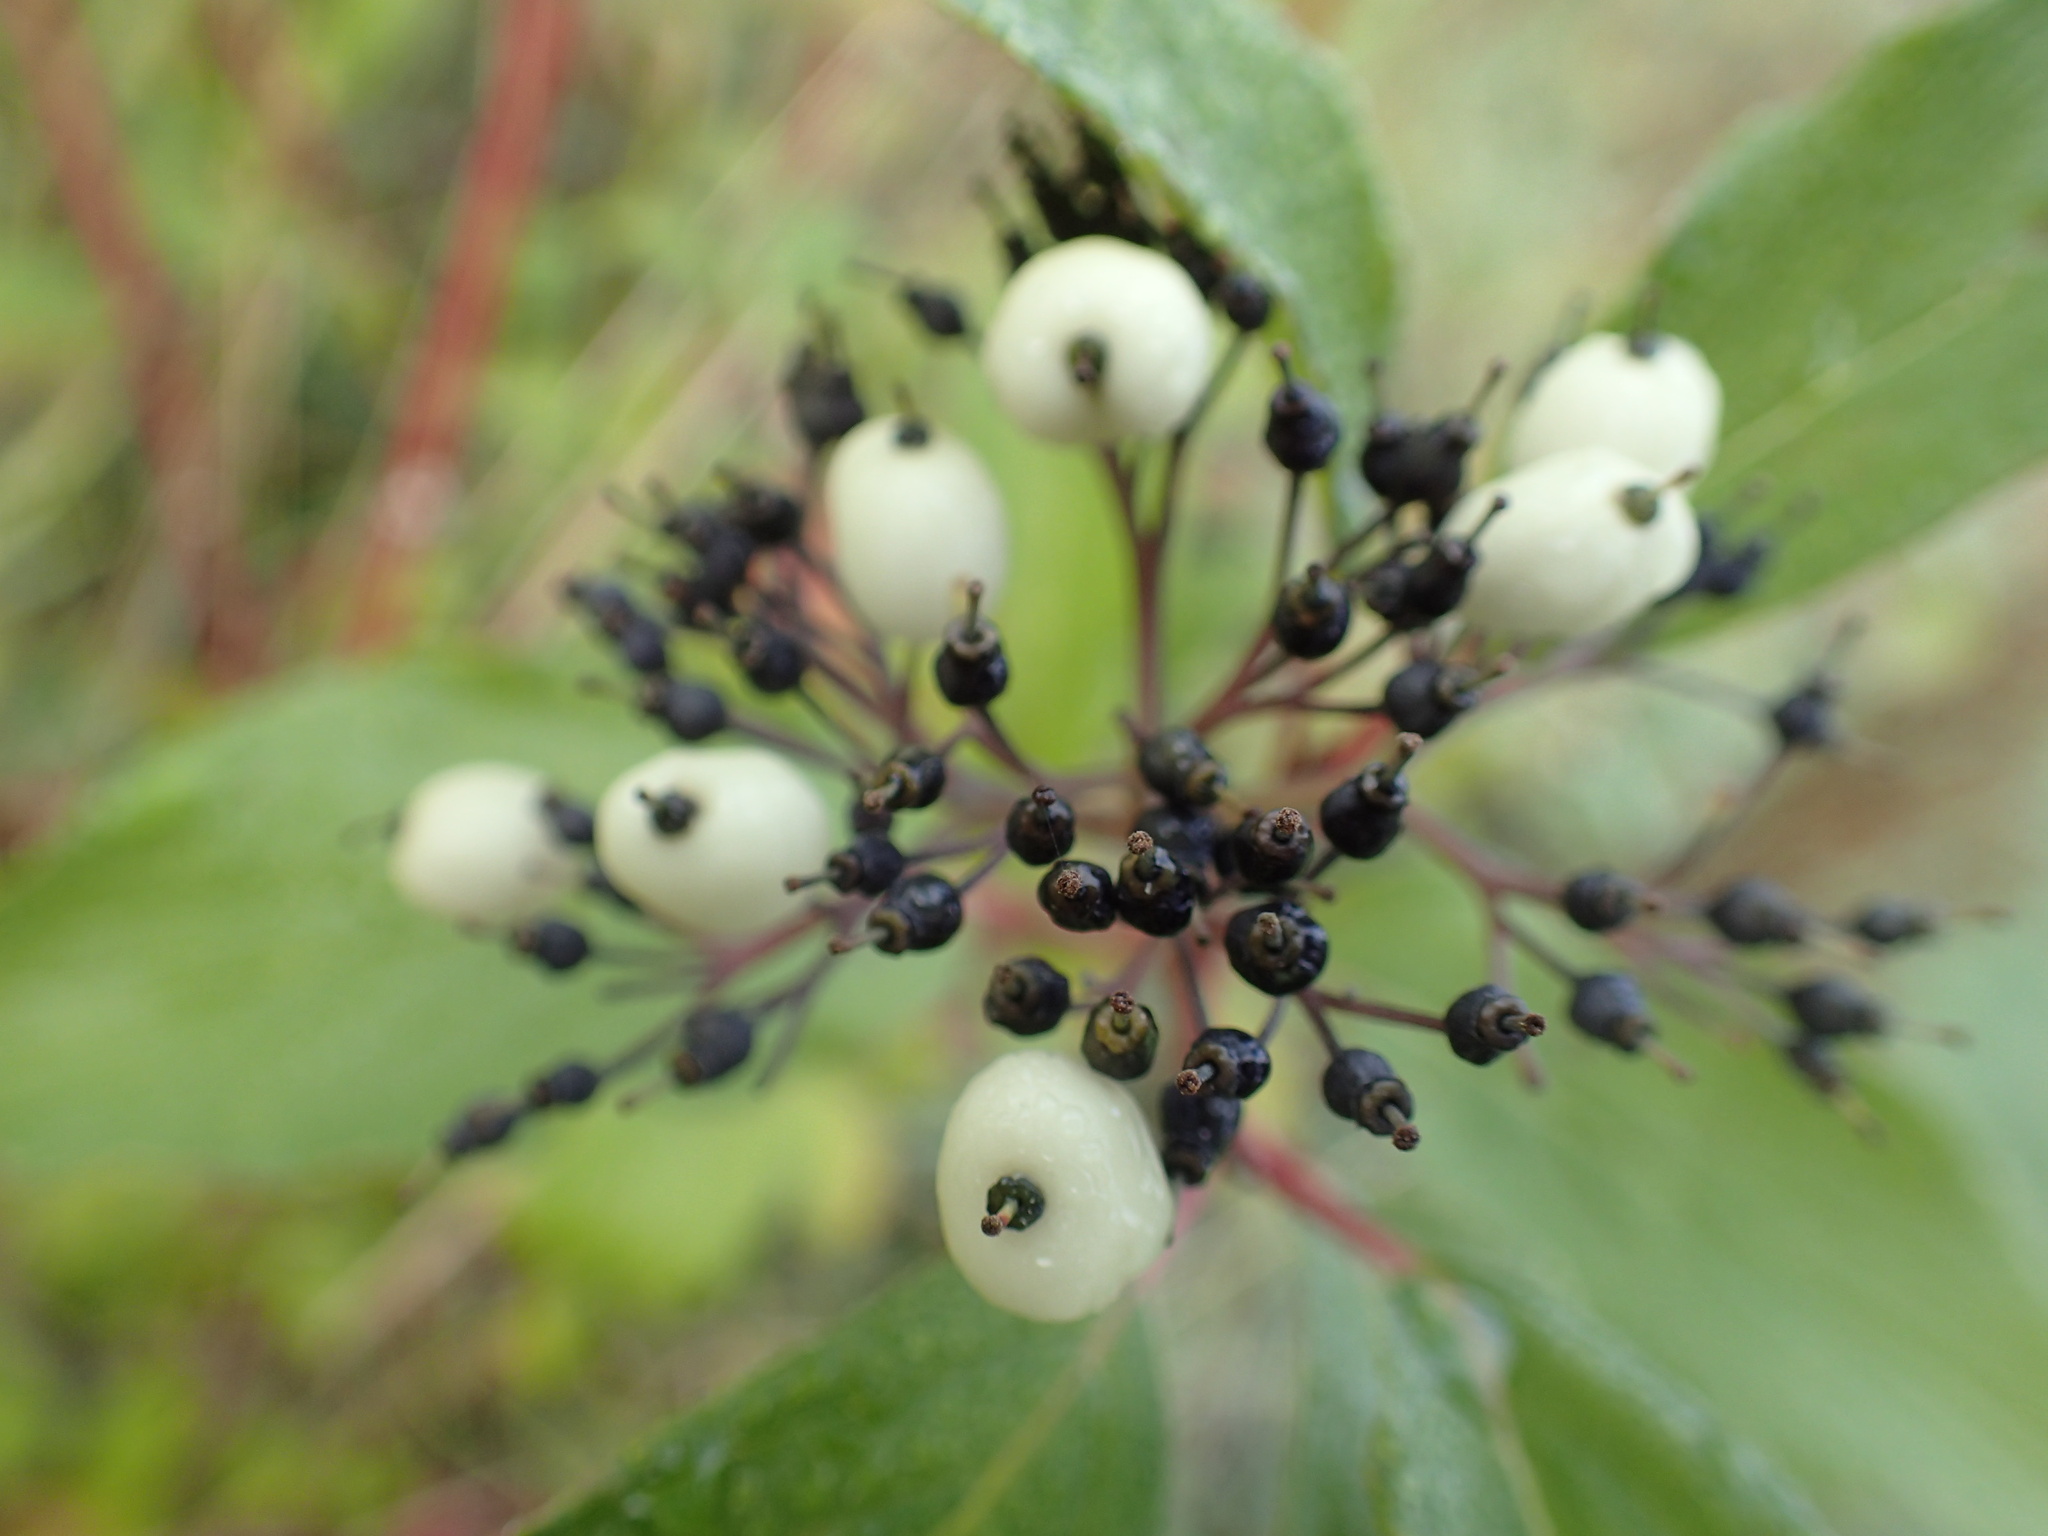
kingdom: Plantae
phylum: Tracheophyta
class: Magnoliopsida
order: Cornales
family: Cornaceae
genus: Cornus
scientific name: Cornus sericea
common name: Red-osier dogwood
